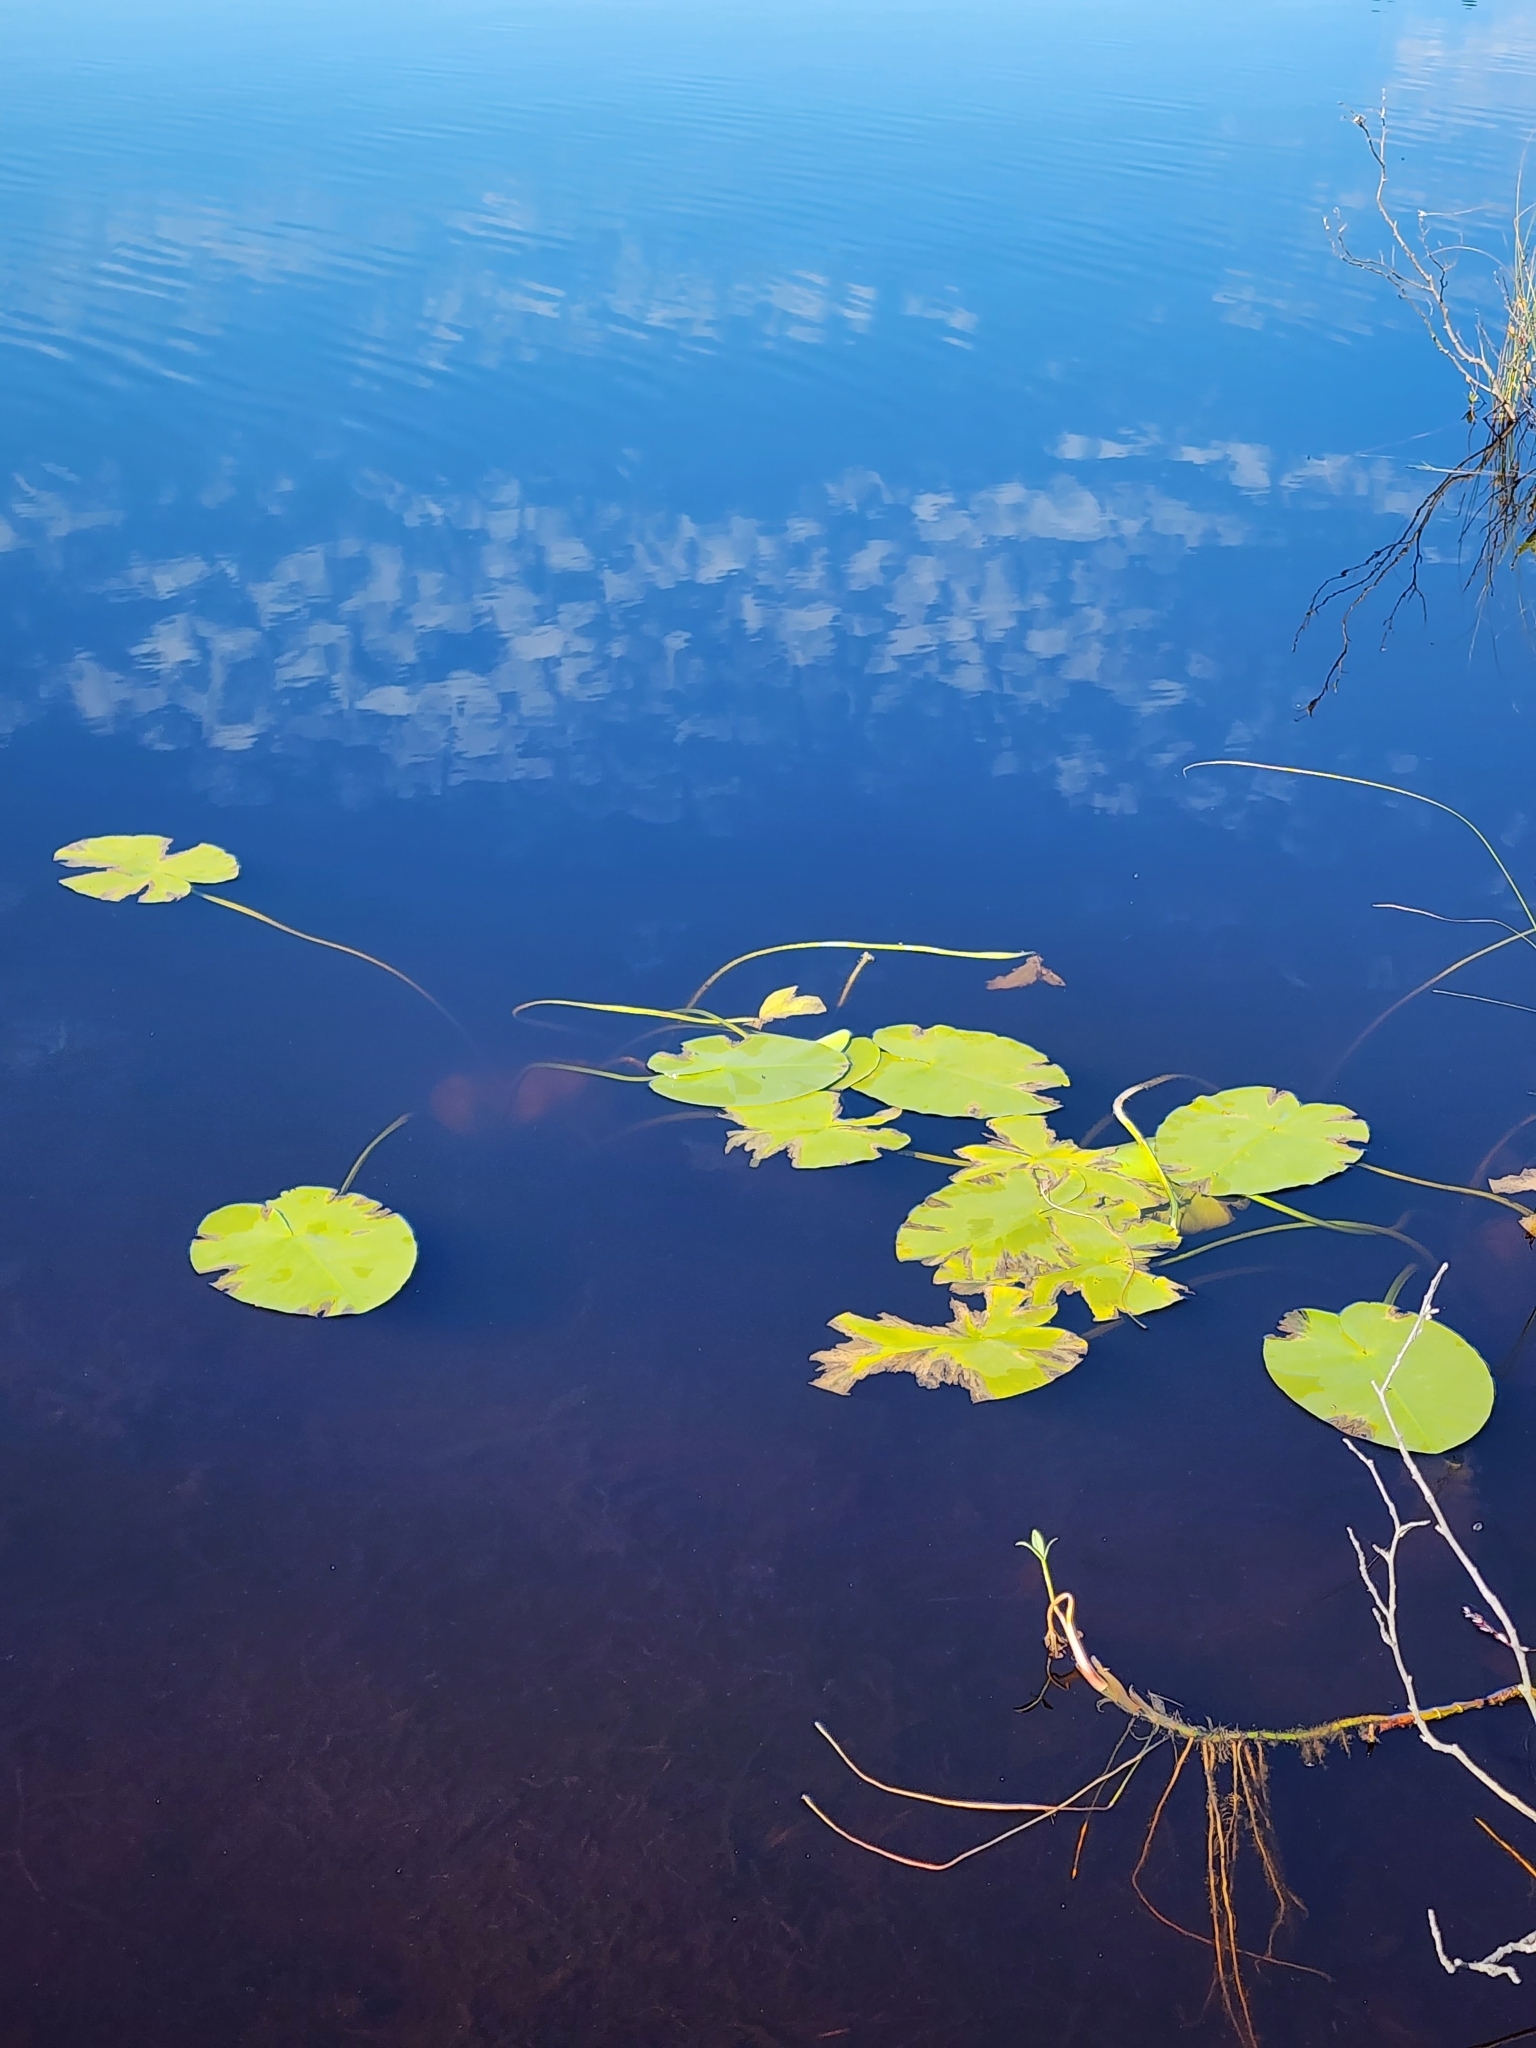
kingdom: Plantae
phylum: Tracheophyta
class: Magnoliopsida
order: Nymphaeales
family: Nymphaeaceae
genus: Nuphar
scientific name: Nuphar variegata
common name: Beaver-root
